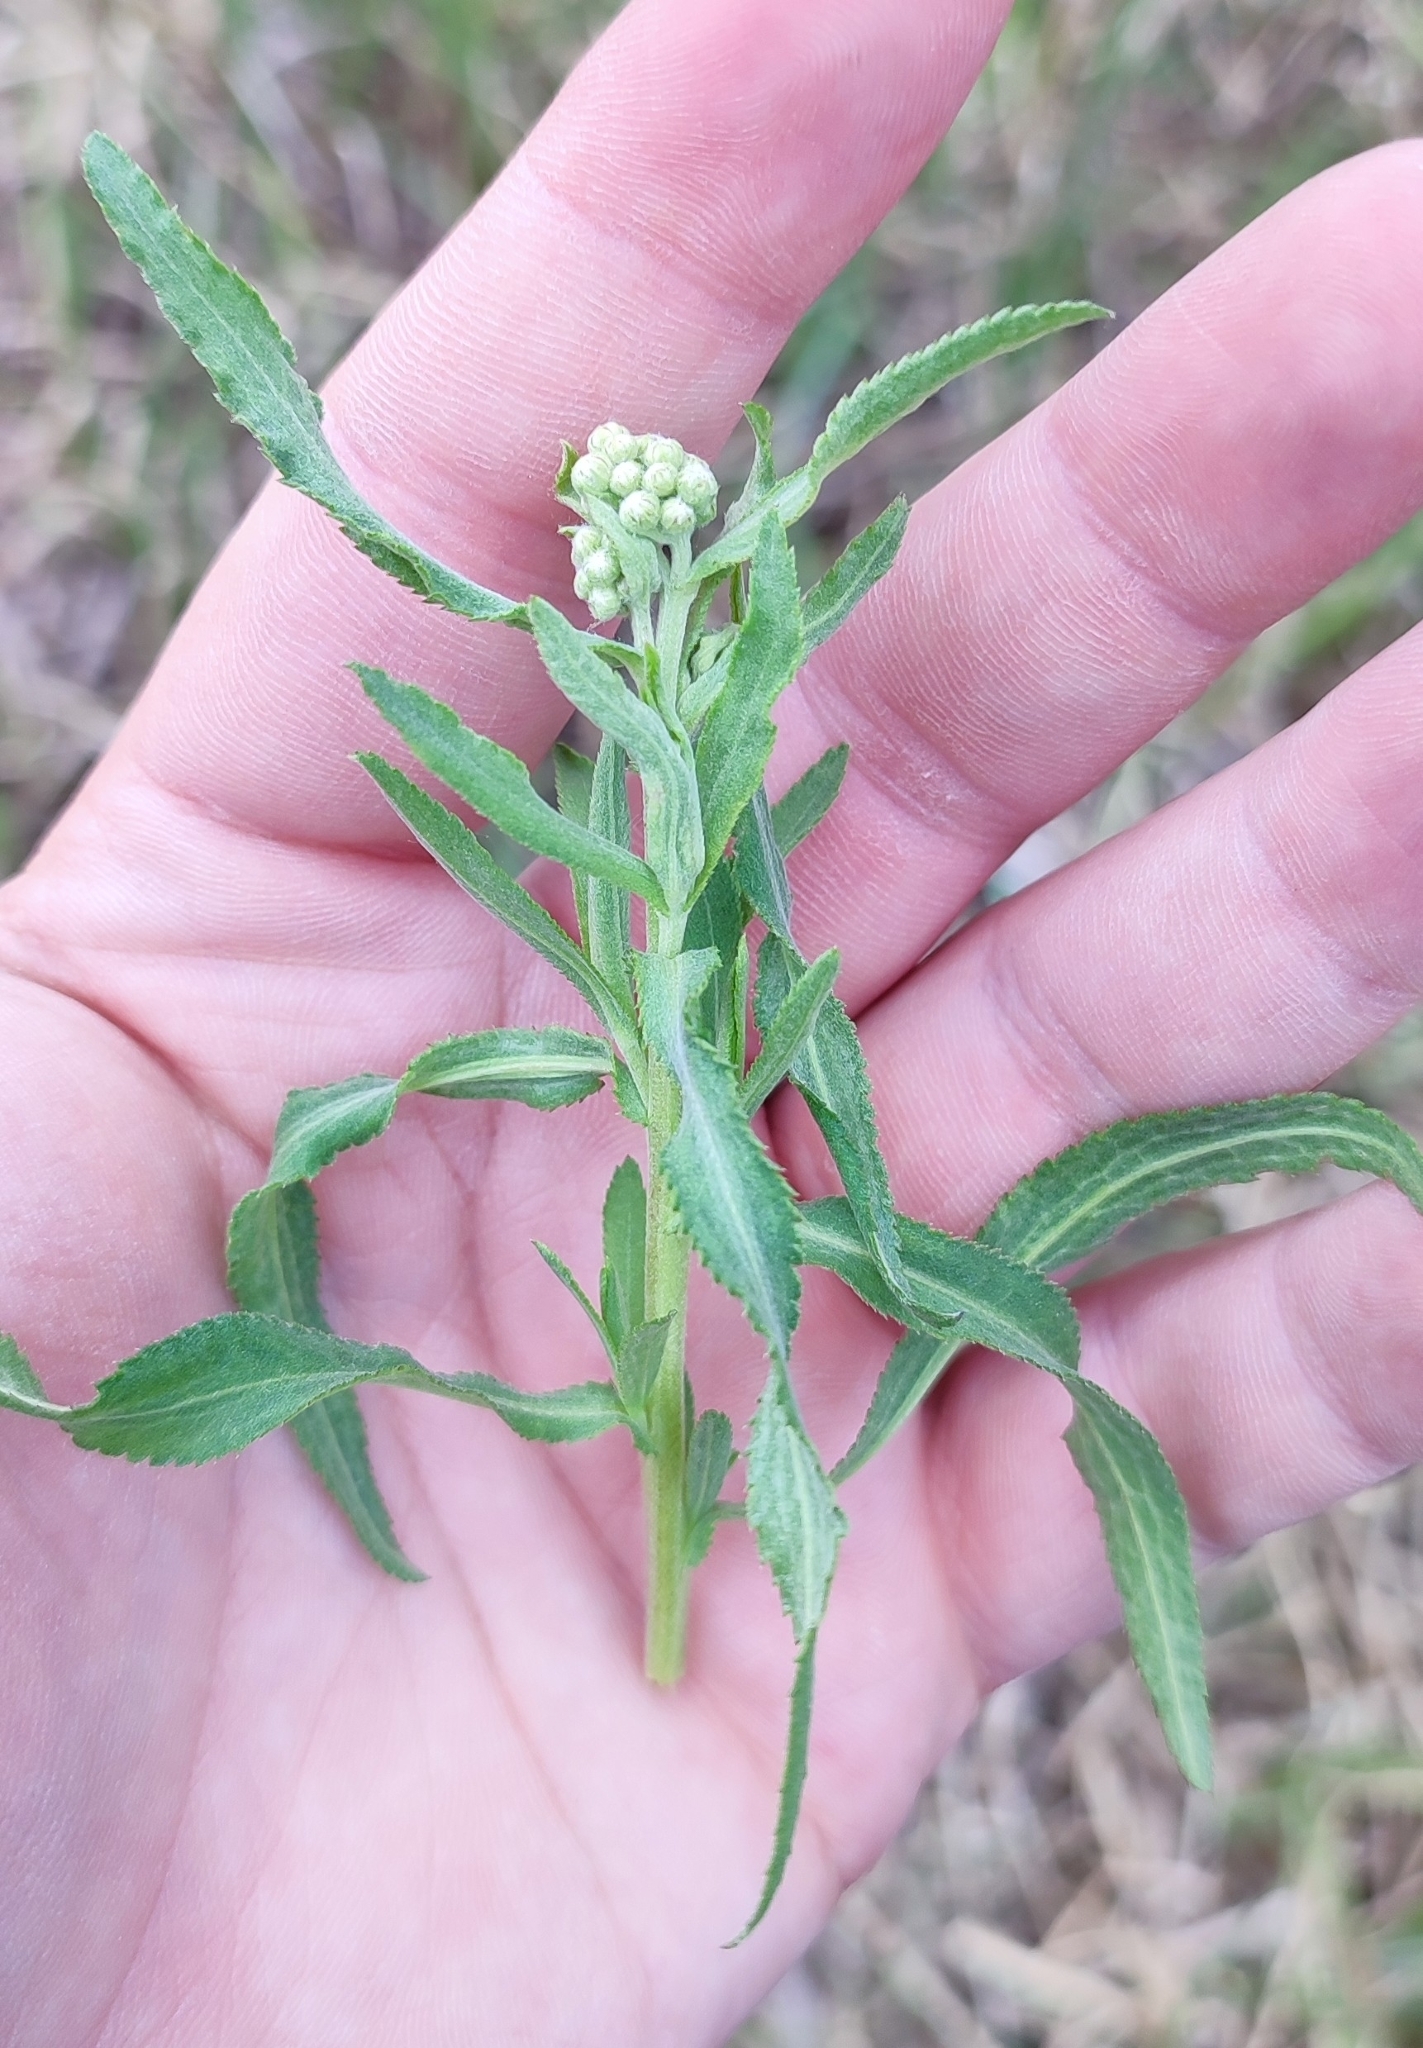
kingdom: Plantae
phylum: Tracheophyta
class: Magnoliopsida
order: Asterales
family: Asteraceae
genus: Achillea
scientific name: Achillea salicifolia
